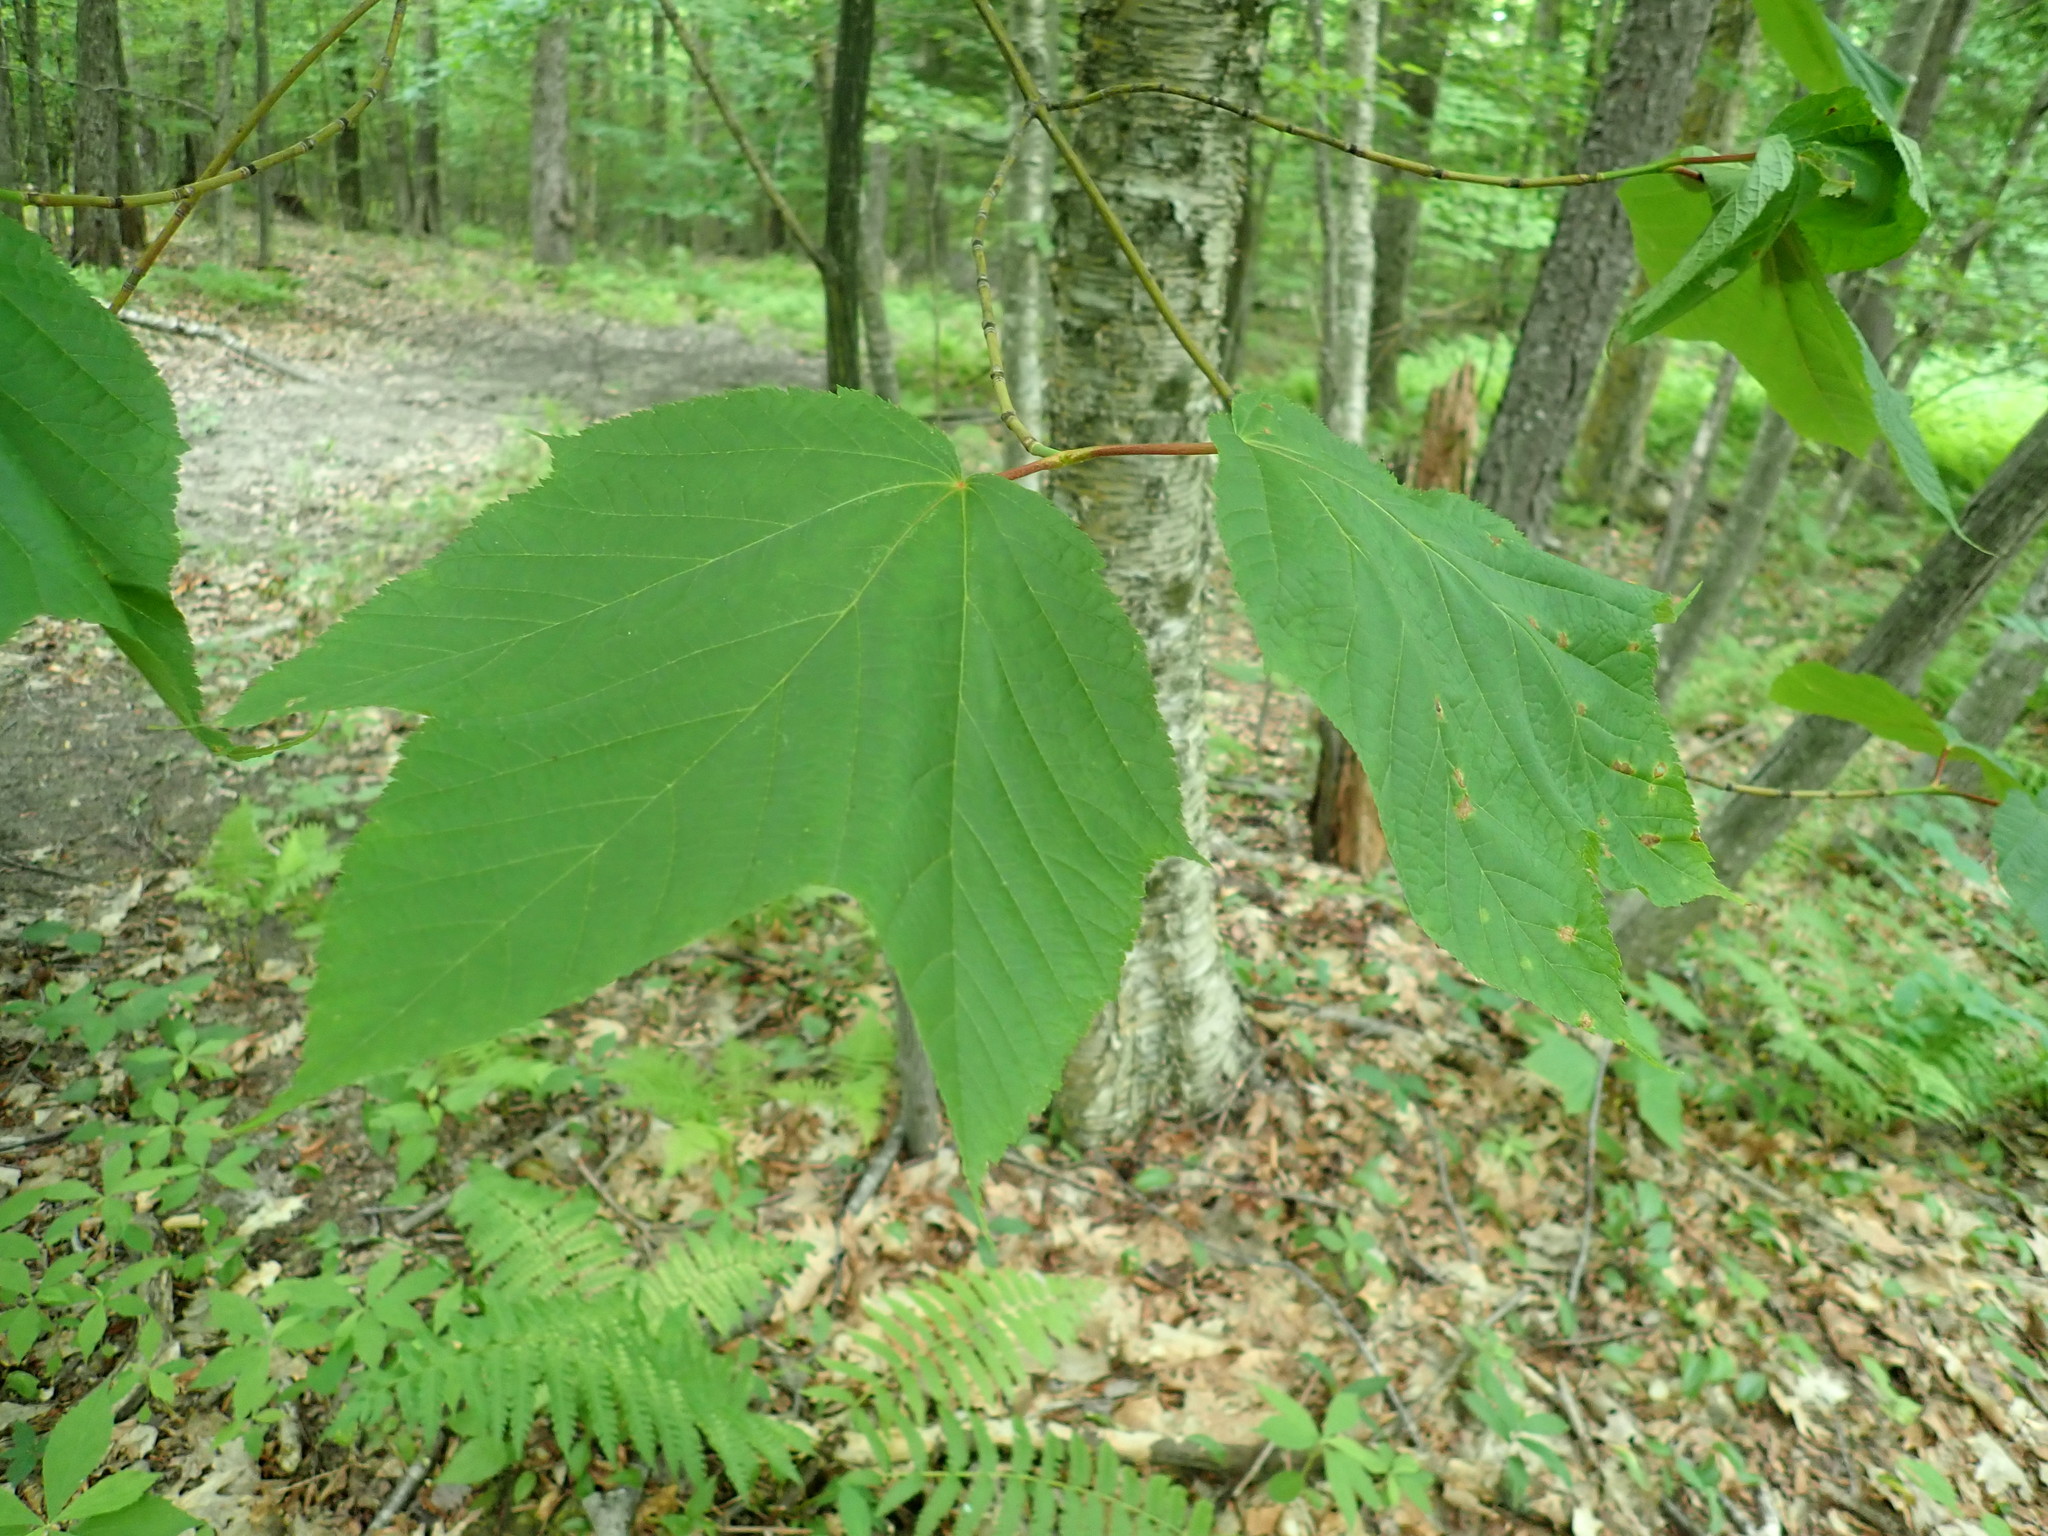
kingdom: Plantae
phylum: Tracheophyta
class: Magnoliopsida
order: Sapindales
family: Sapindaceae
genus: Acer
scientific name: Acer pensylvanicum
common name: Moosewood
